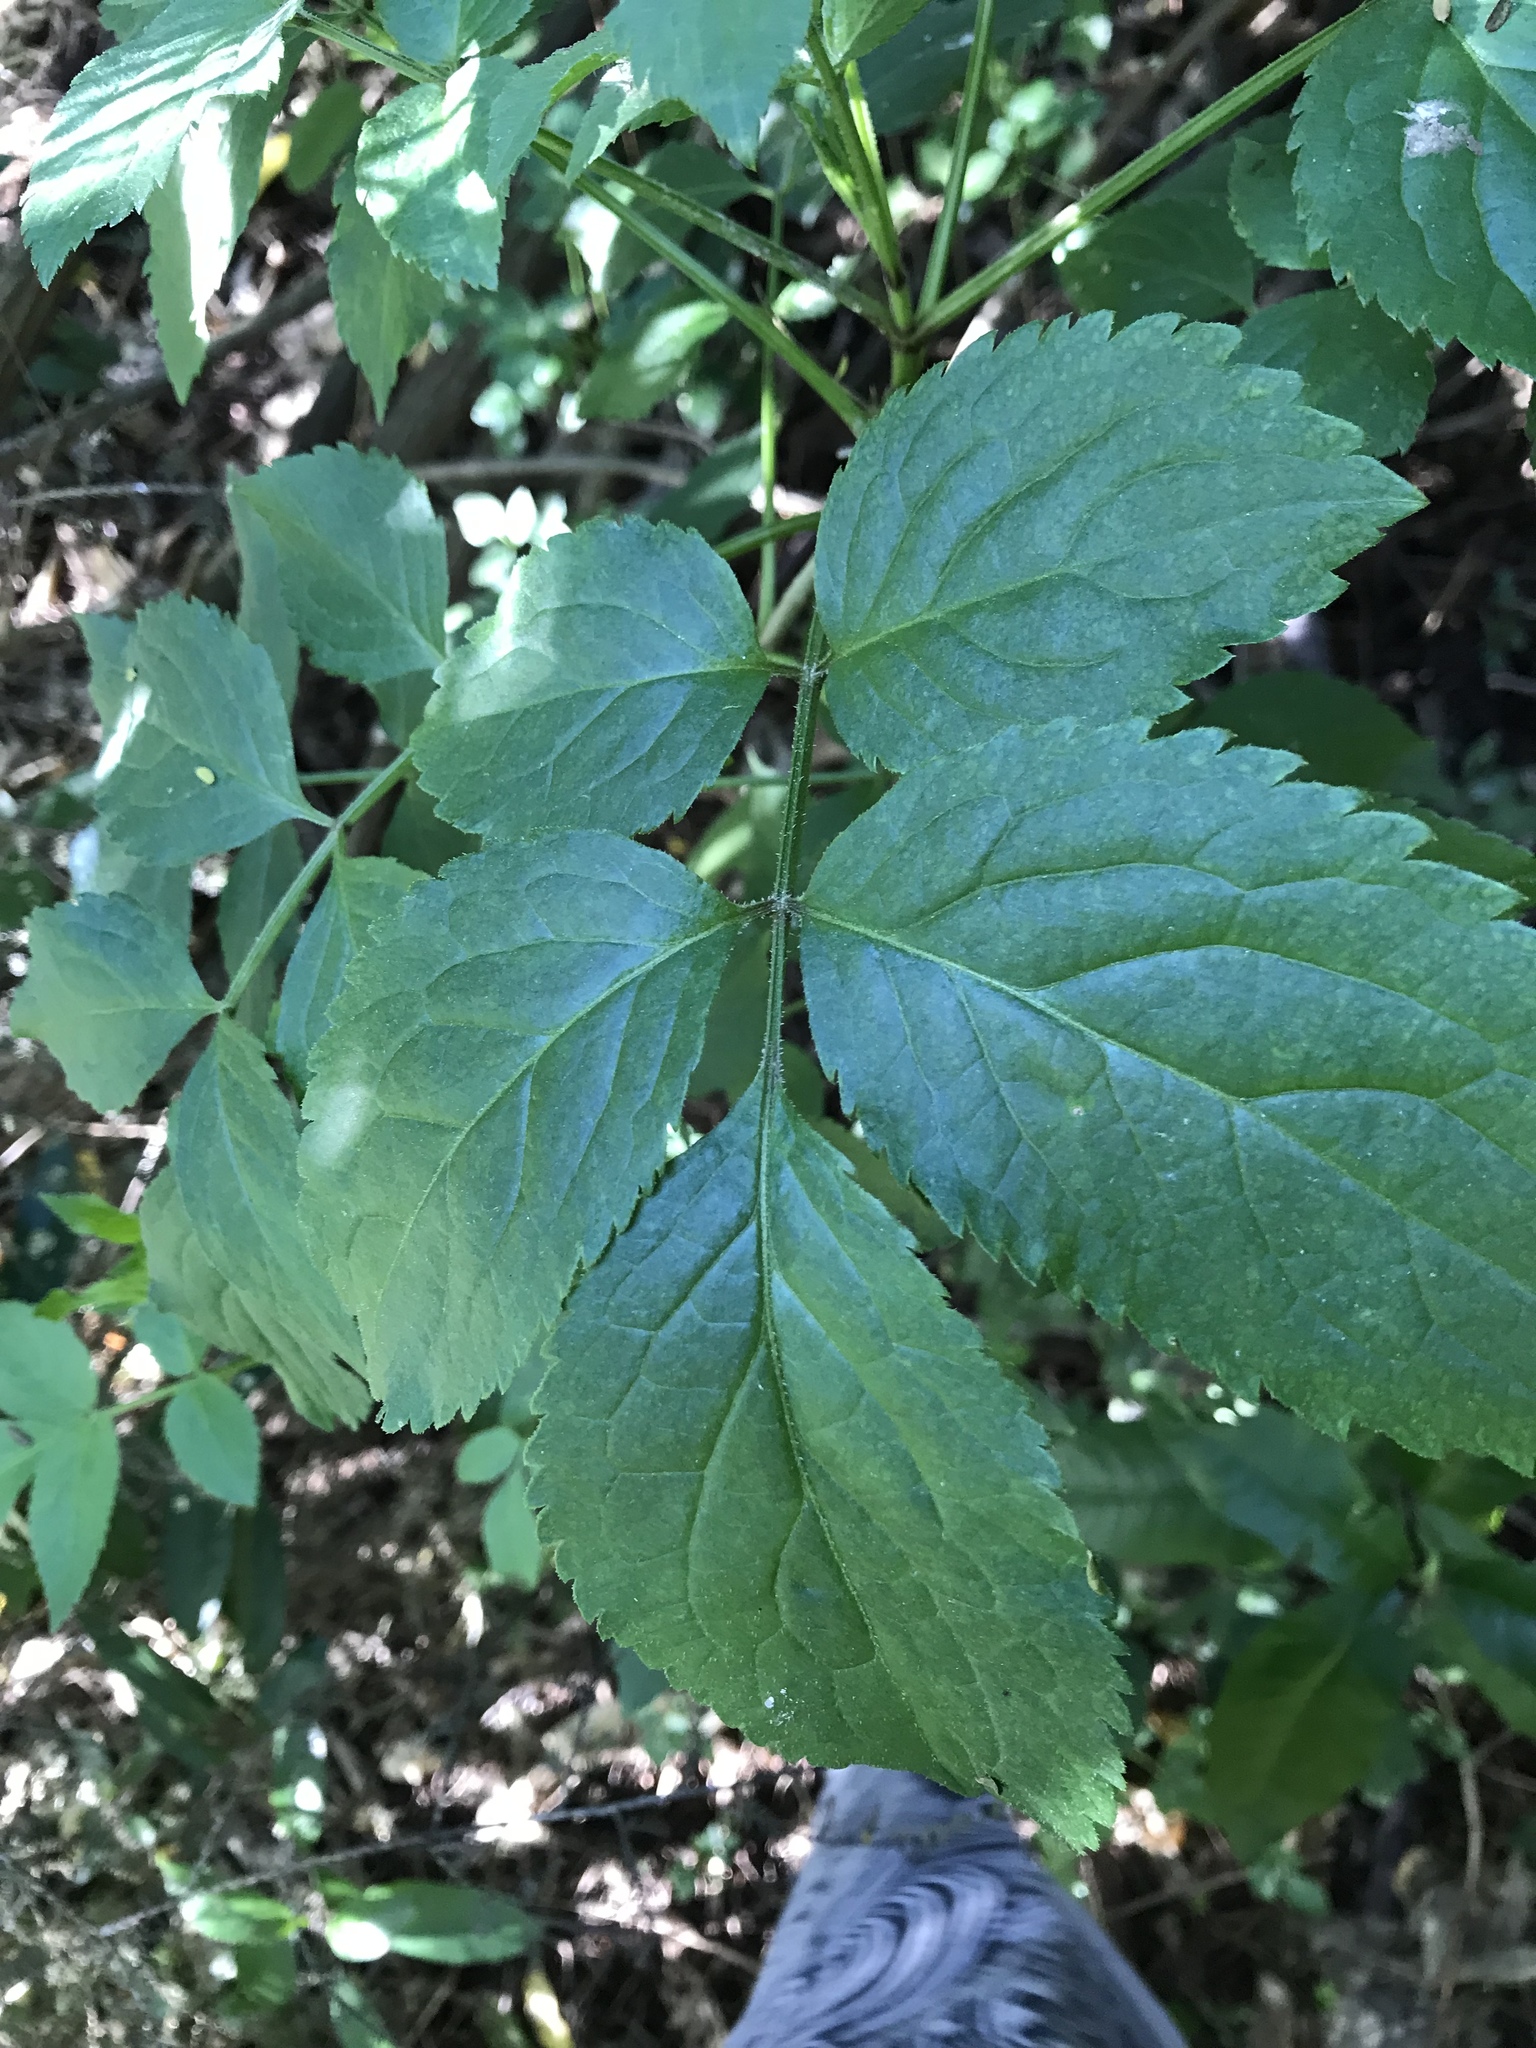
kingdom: Plantae
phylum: Tracheophyta
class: Magnoliopsida
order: Dipsacales
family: Viburnaceae
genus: Sambucus
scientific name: Sambucus nigra
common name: Elder
